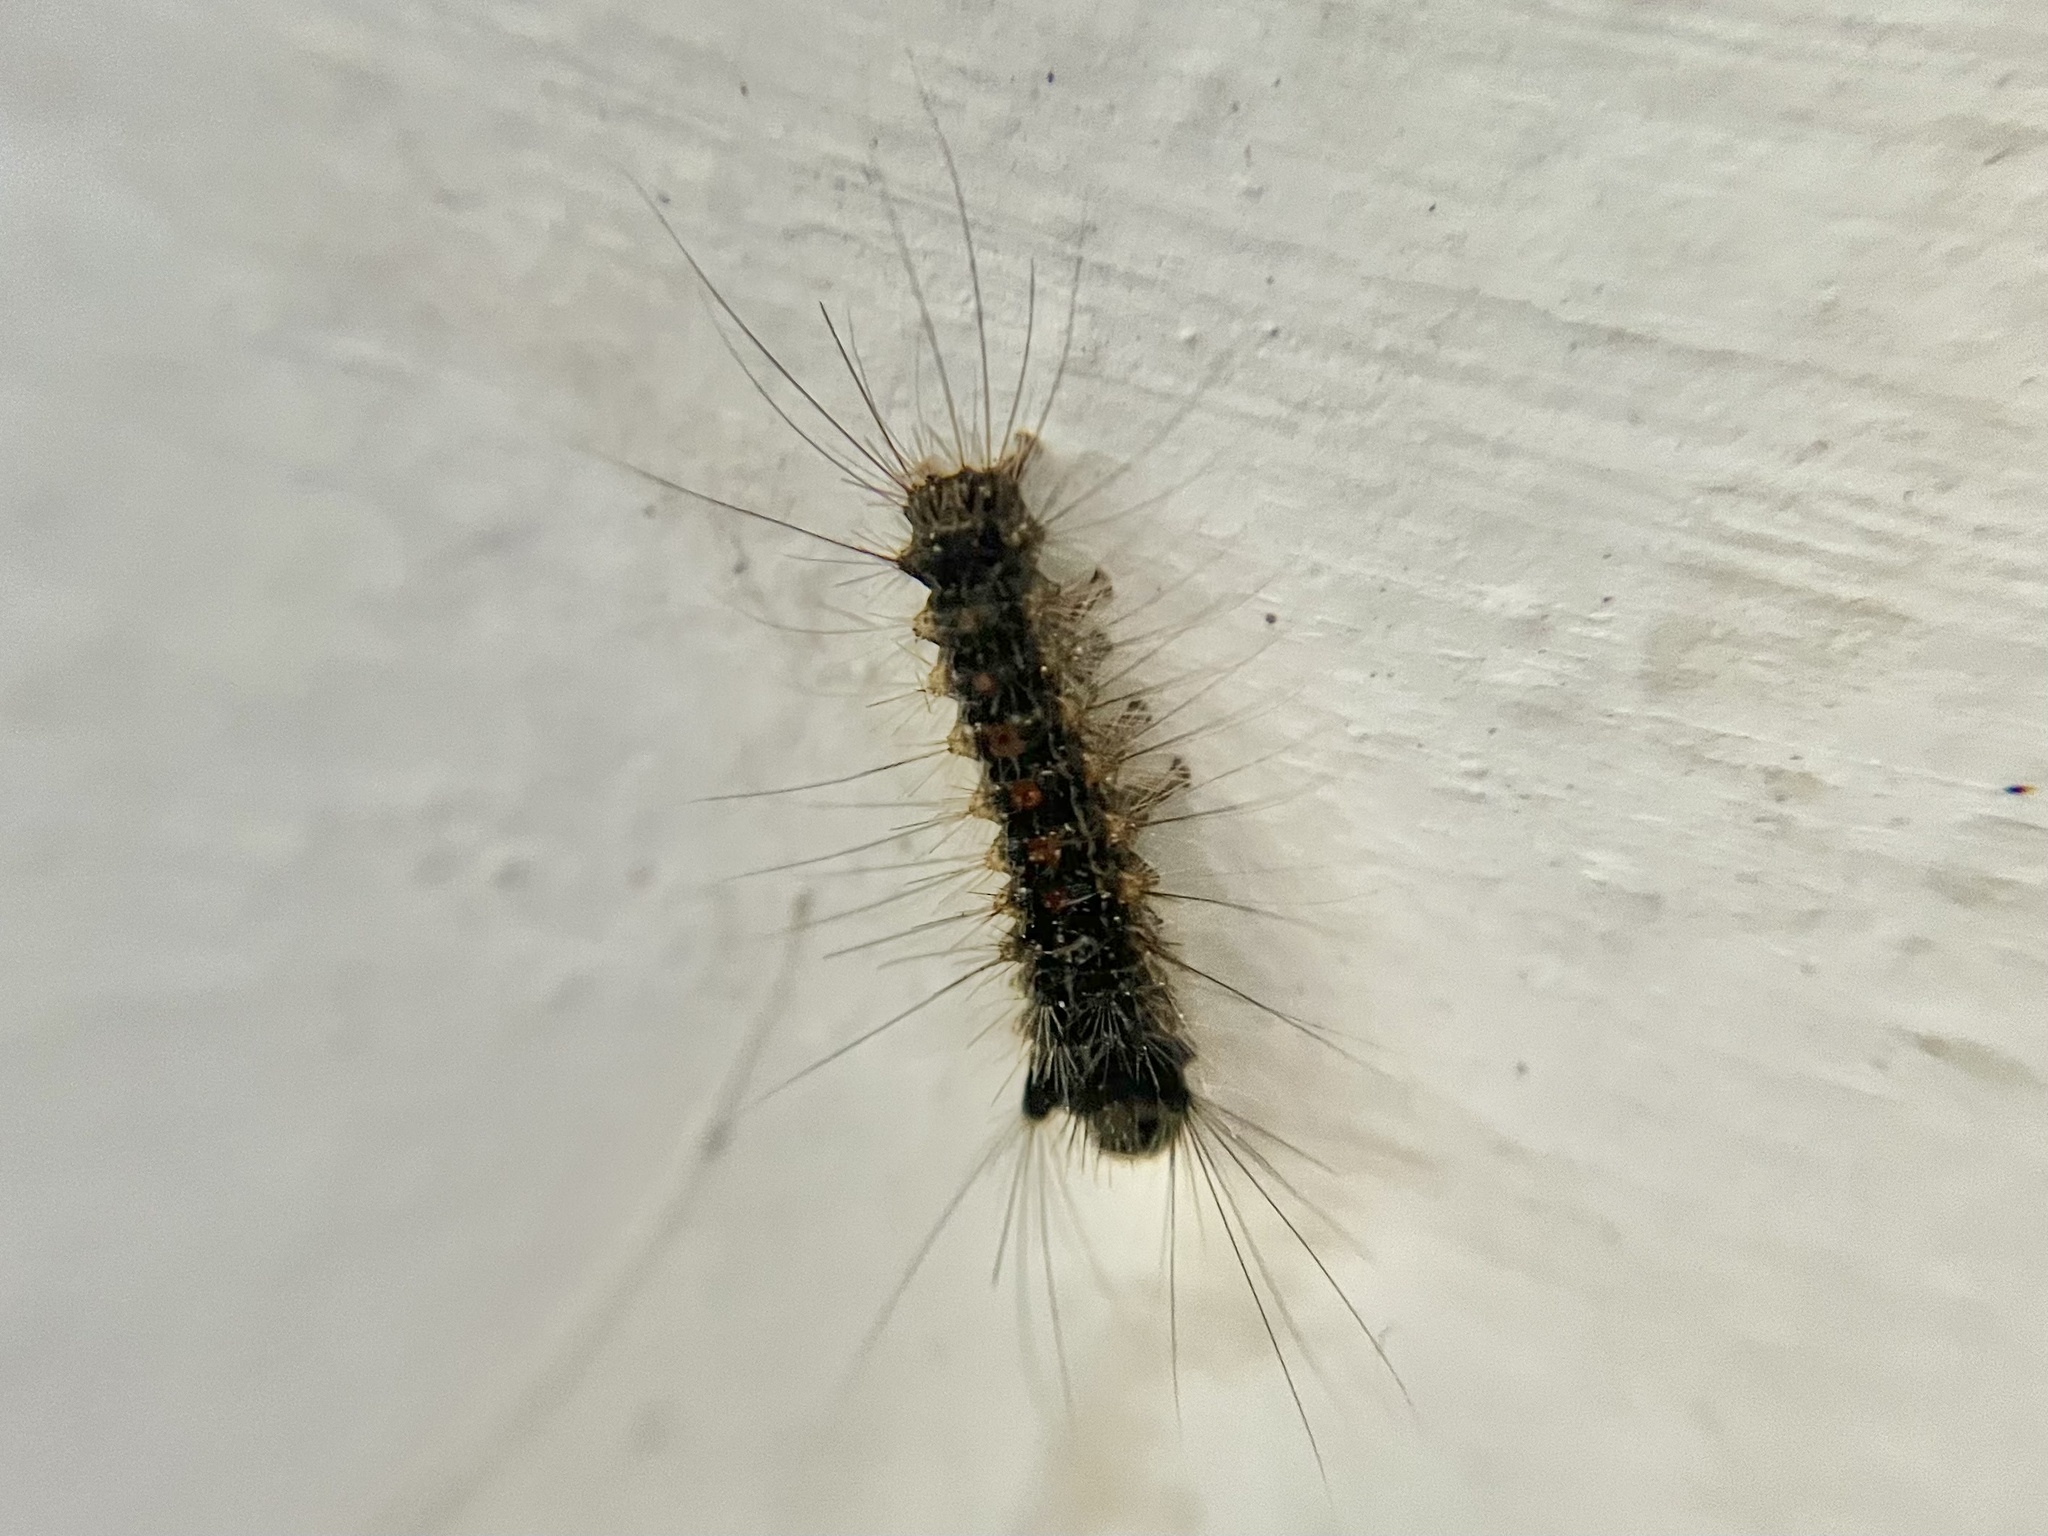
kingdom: Animalia
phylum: Arthropoda
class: Insecta
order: Lepidoptera
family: Erebidae
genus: Lymantria
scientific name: Lymantria dispar
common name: Gypsy moth
